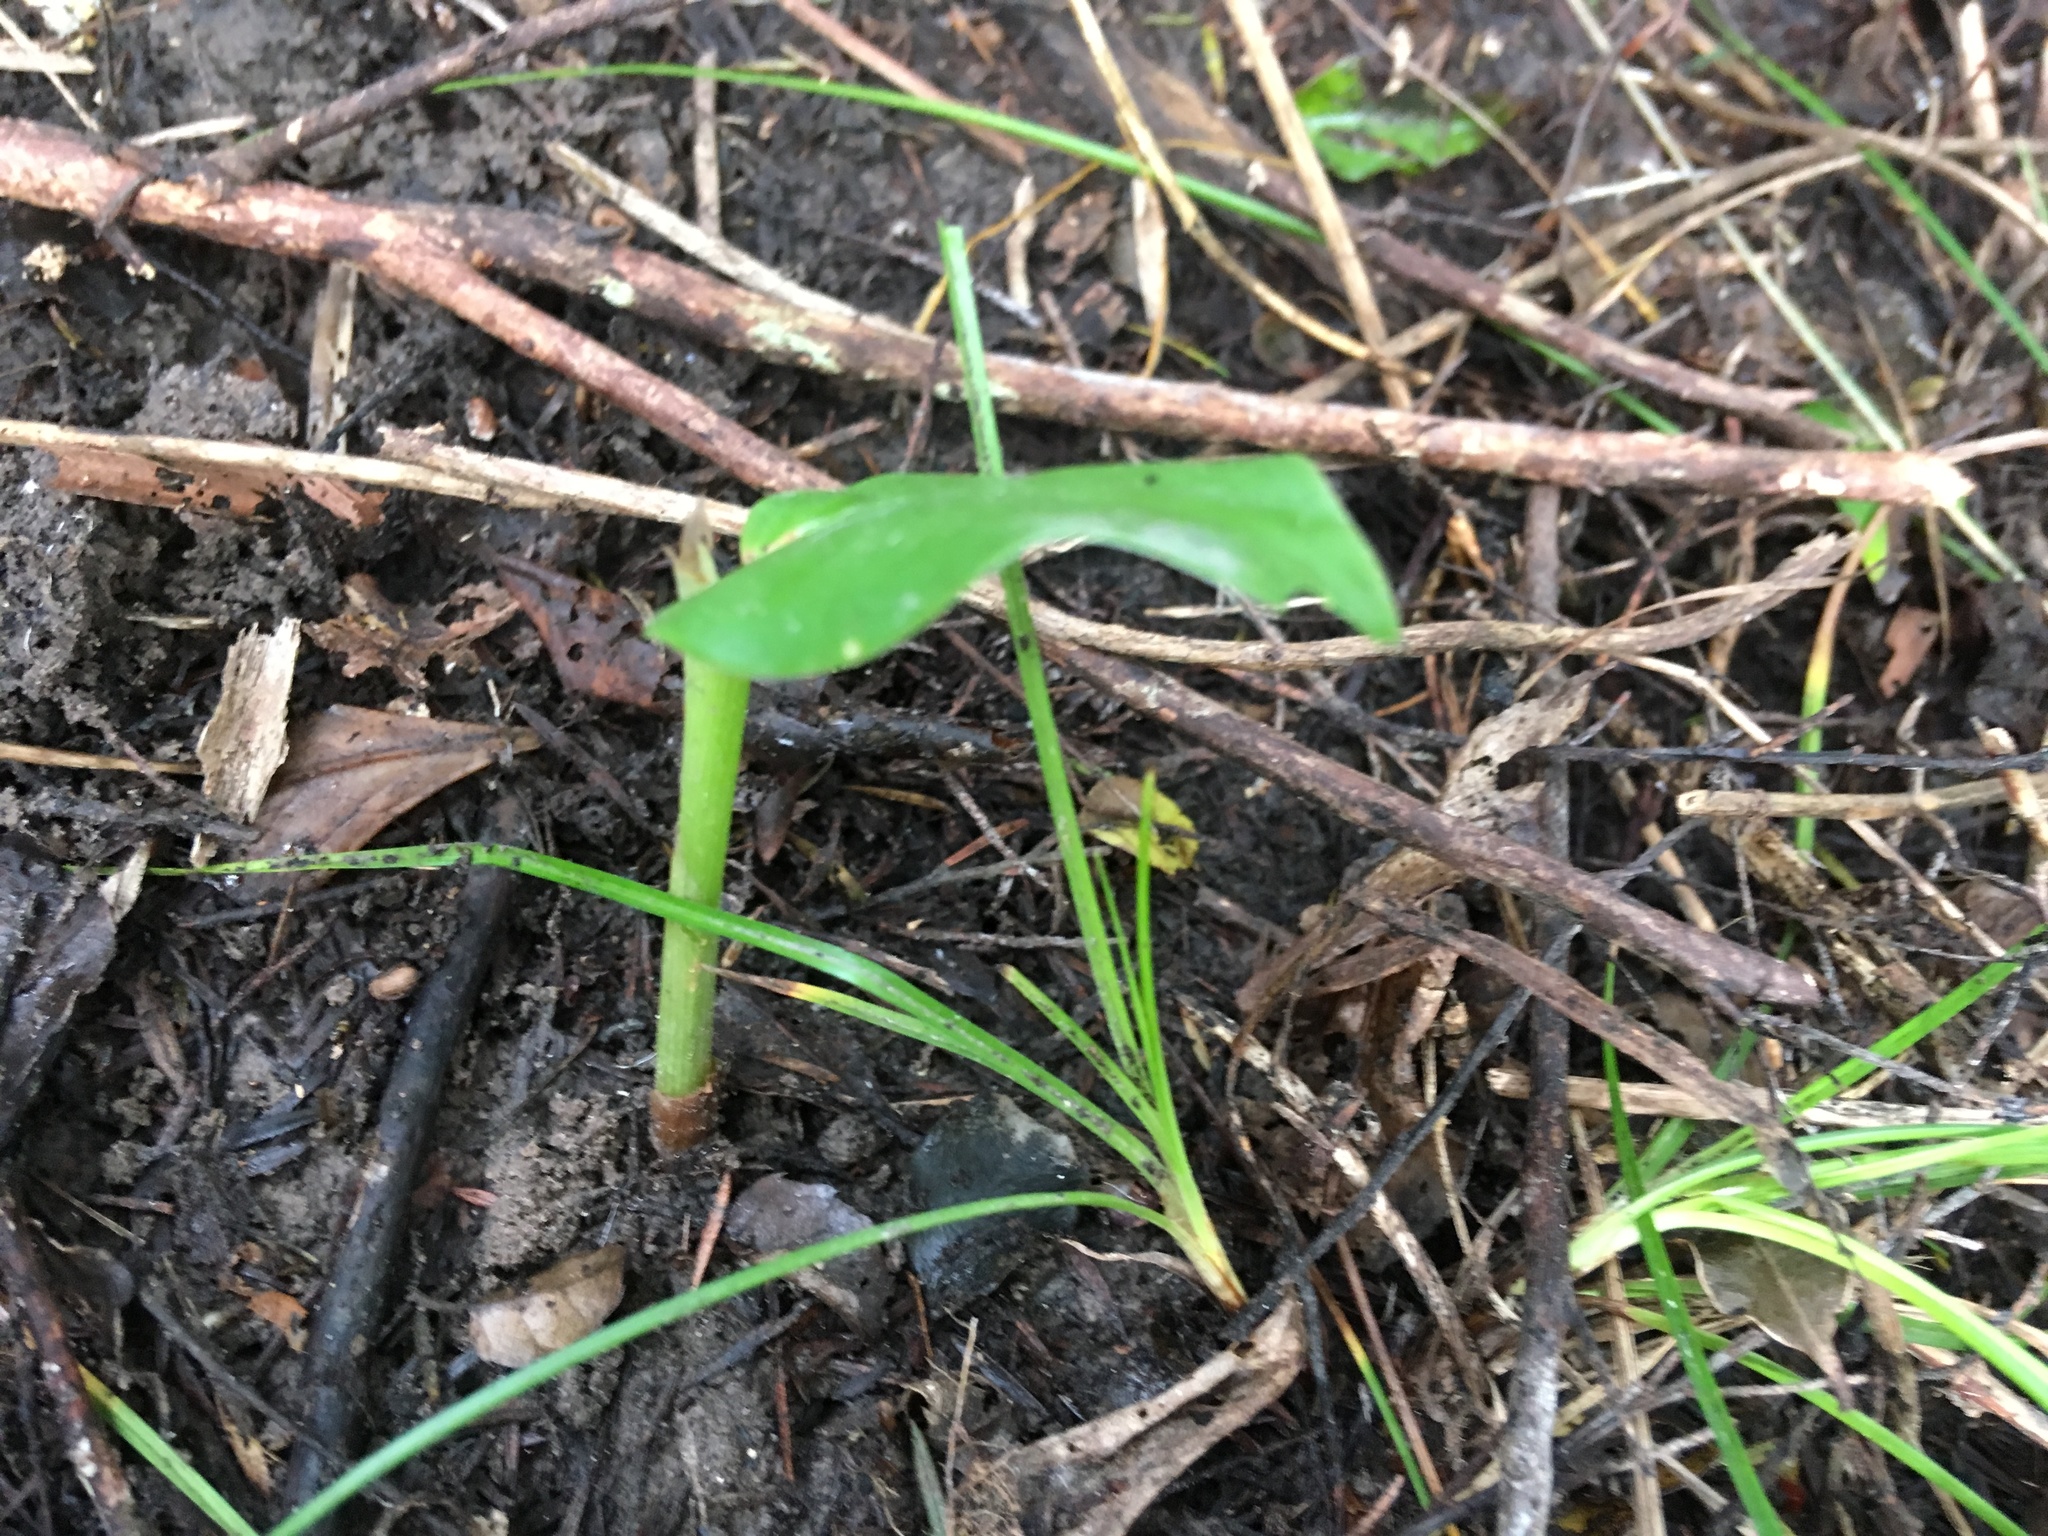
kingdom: Plantae
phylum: Tracheophyta
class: Liliopsida
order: Zingiberales
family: Zingiberaceae
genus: Hedychium
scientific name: Hedychium gardnerianum
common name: Himalayan ginger
